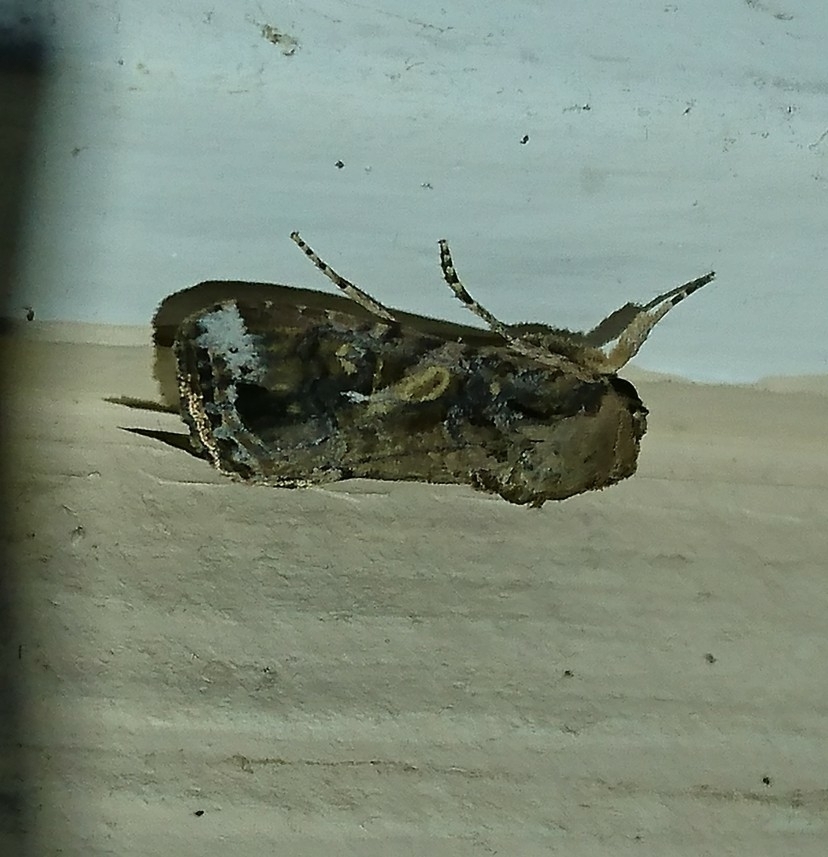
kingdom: Animalia
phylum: Arthropoda
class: Insecta
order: Lepidoptera
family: Noctuidae
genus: Spodoptera
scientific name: Spodoptera frugiperda
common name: Fall armyworm
